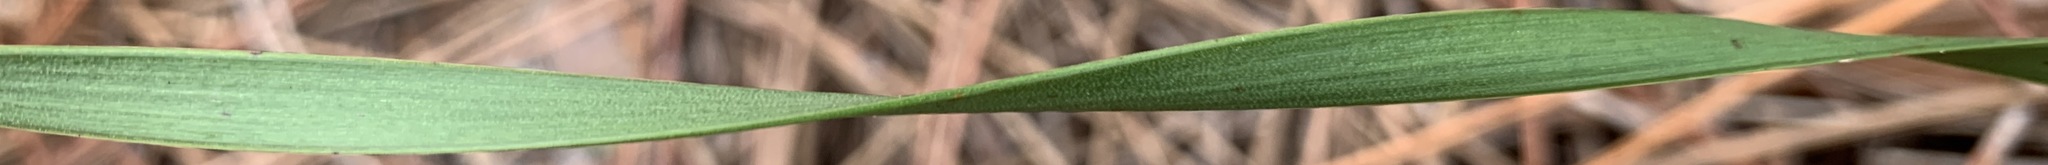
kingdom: Plantae
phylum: Tracheophyta
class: Liliopsida
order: Poales
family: Xyridaceae
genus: Xyris
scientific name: Xyris caroliniana
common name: Carolina yellow-eyed-grass
